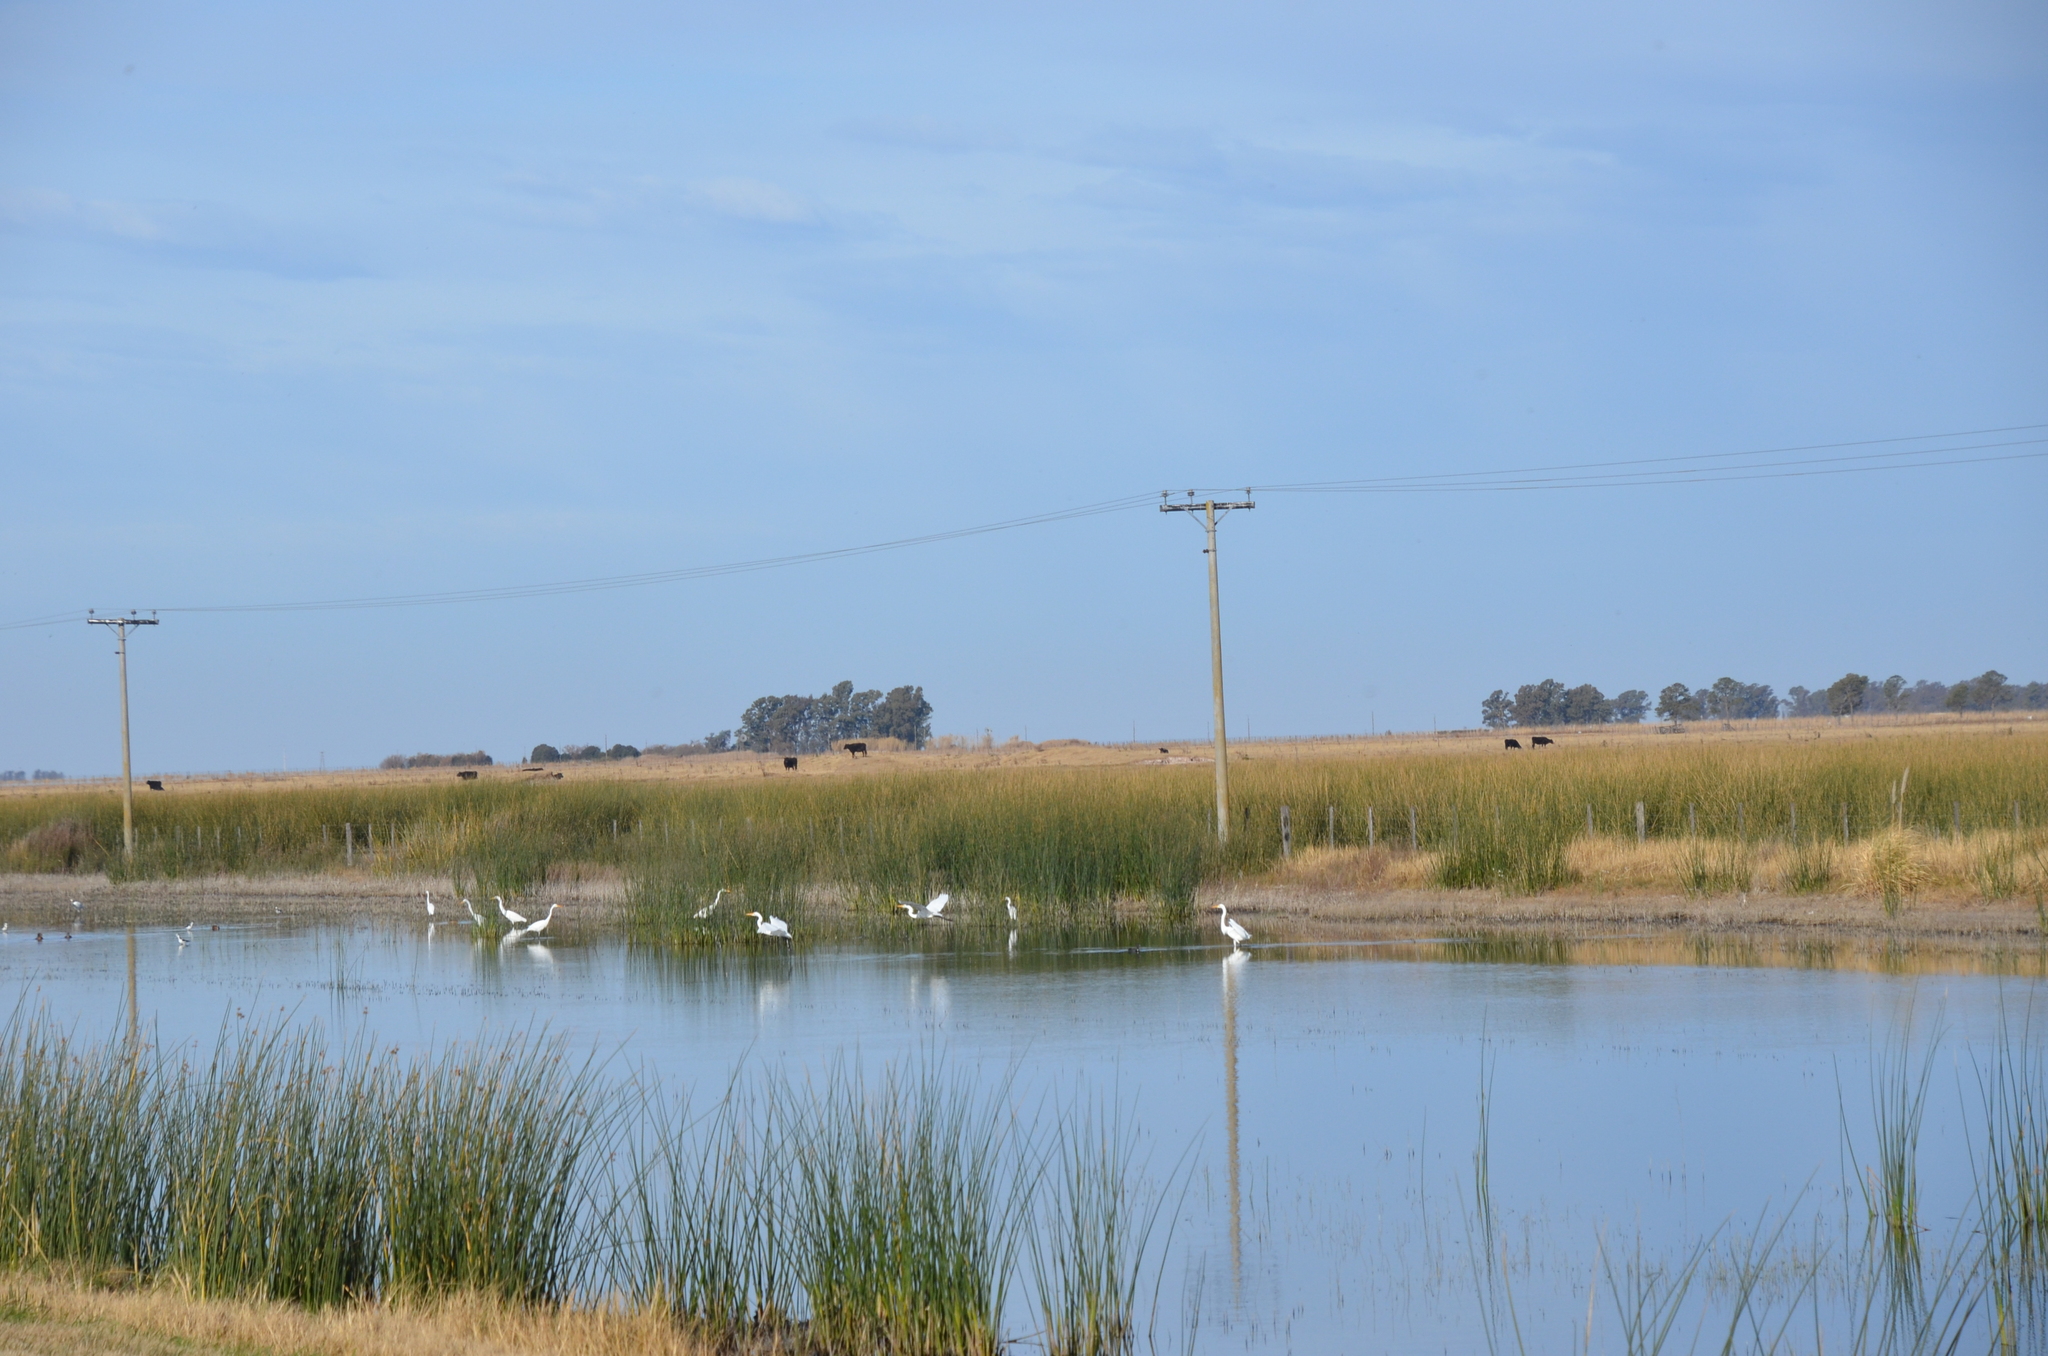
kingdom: Animalia
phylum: Chordata
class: Aves
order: Pelecaniformes
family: Ardeidae
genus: Ardea
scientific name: Ardea alba
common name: Great egret
